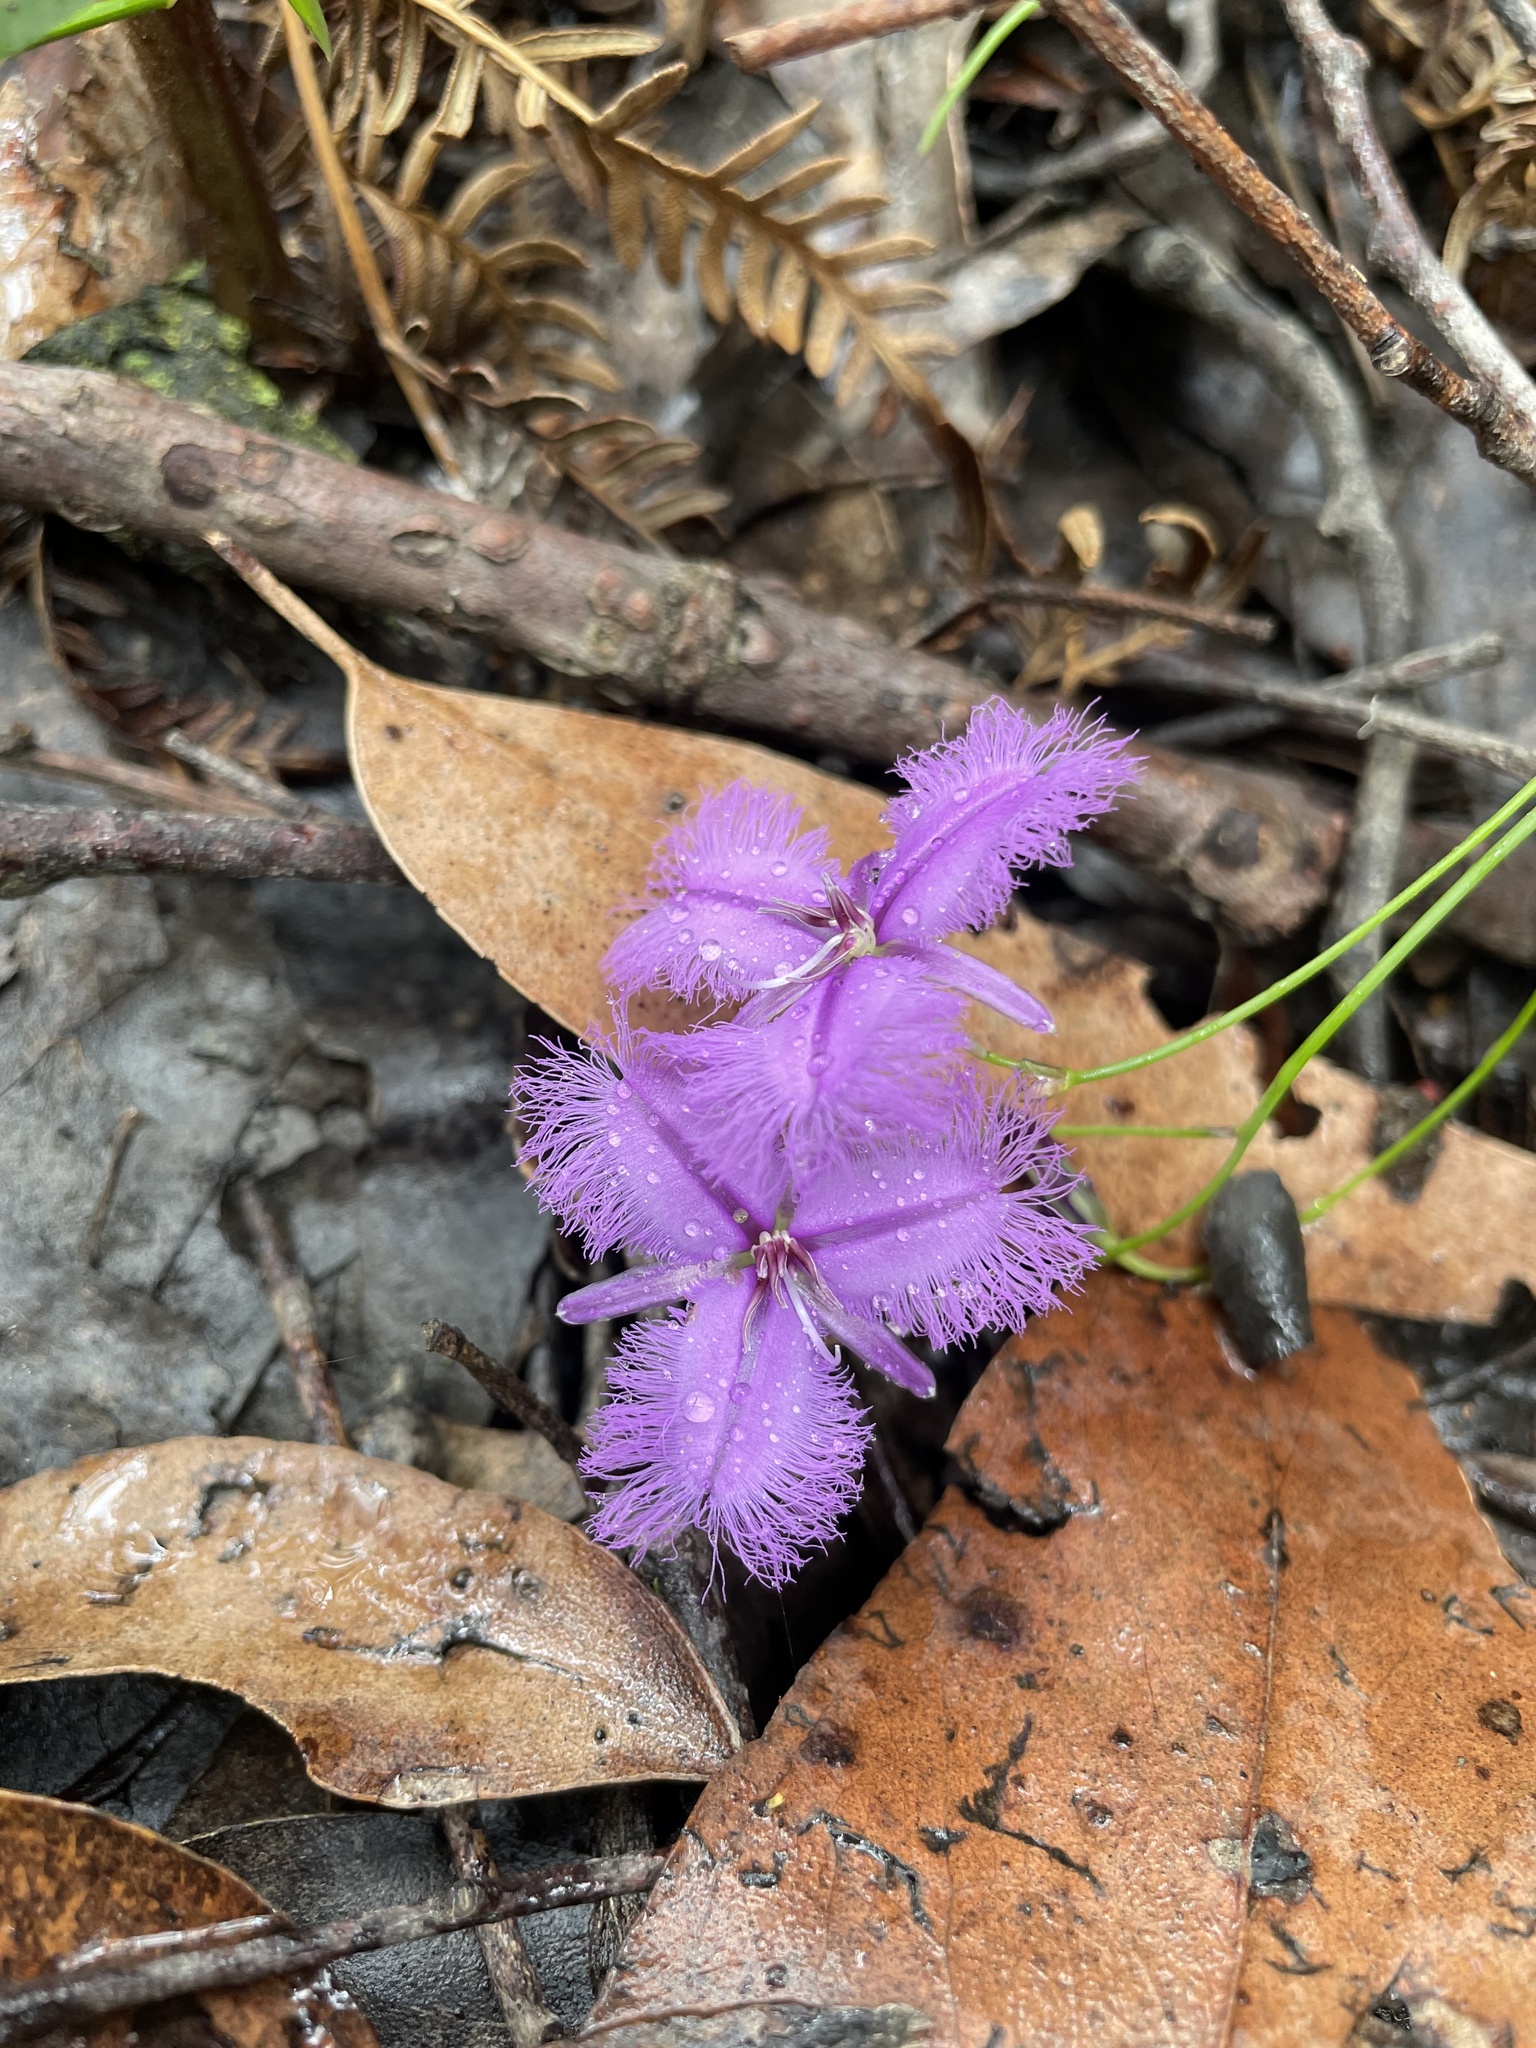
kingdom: Plantae
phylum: Tracheophyta
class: Liliopsida
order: Asparagales
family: Asparagaceae
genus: Thysanotus
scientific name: Thysanotus tuberosus
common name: Common fringed-lily
